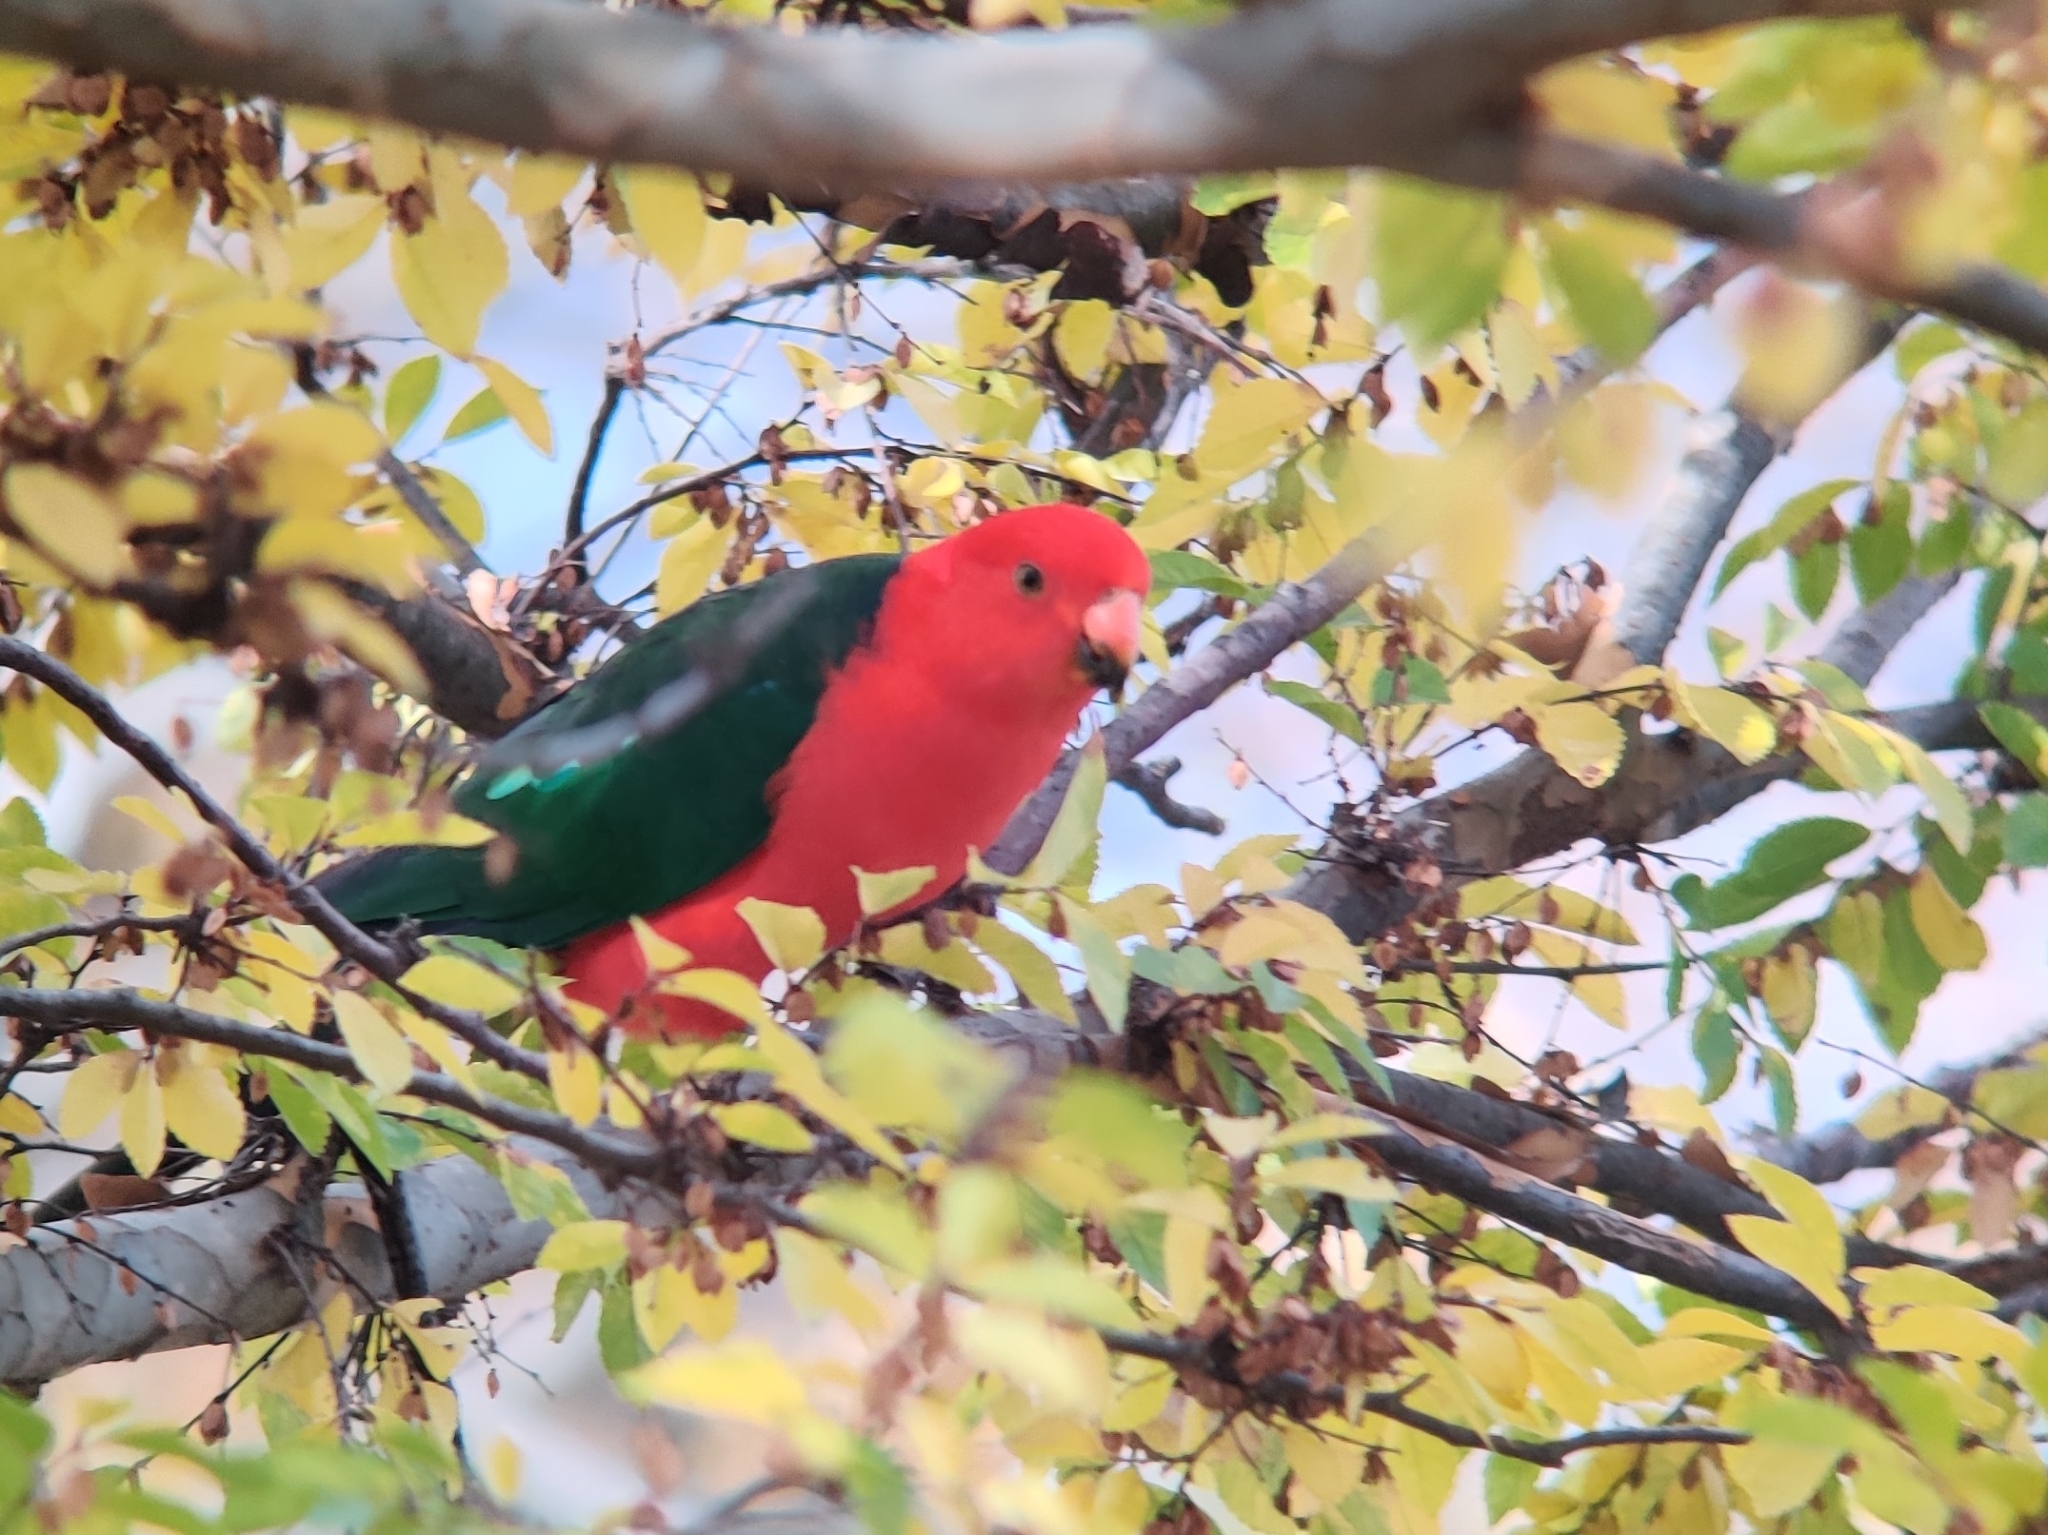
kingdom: Animalia
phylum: Chordata
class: Aves
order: Psittaciformes
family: Psittacidae
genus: Alisterus
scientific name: Alisterus scapularis
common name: Australian king parrot
